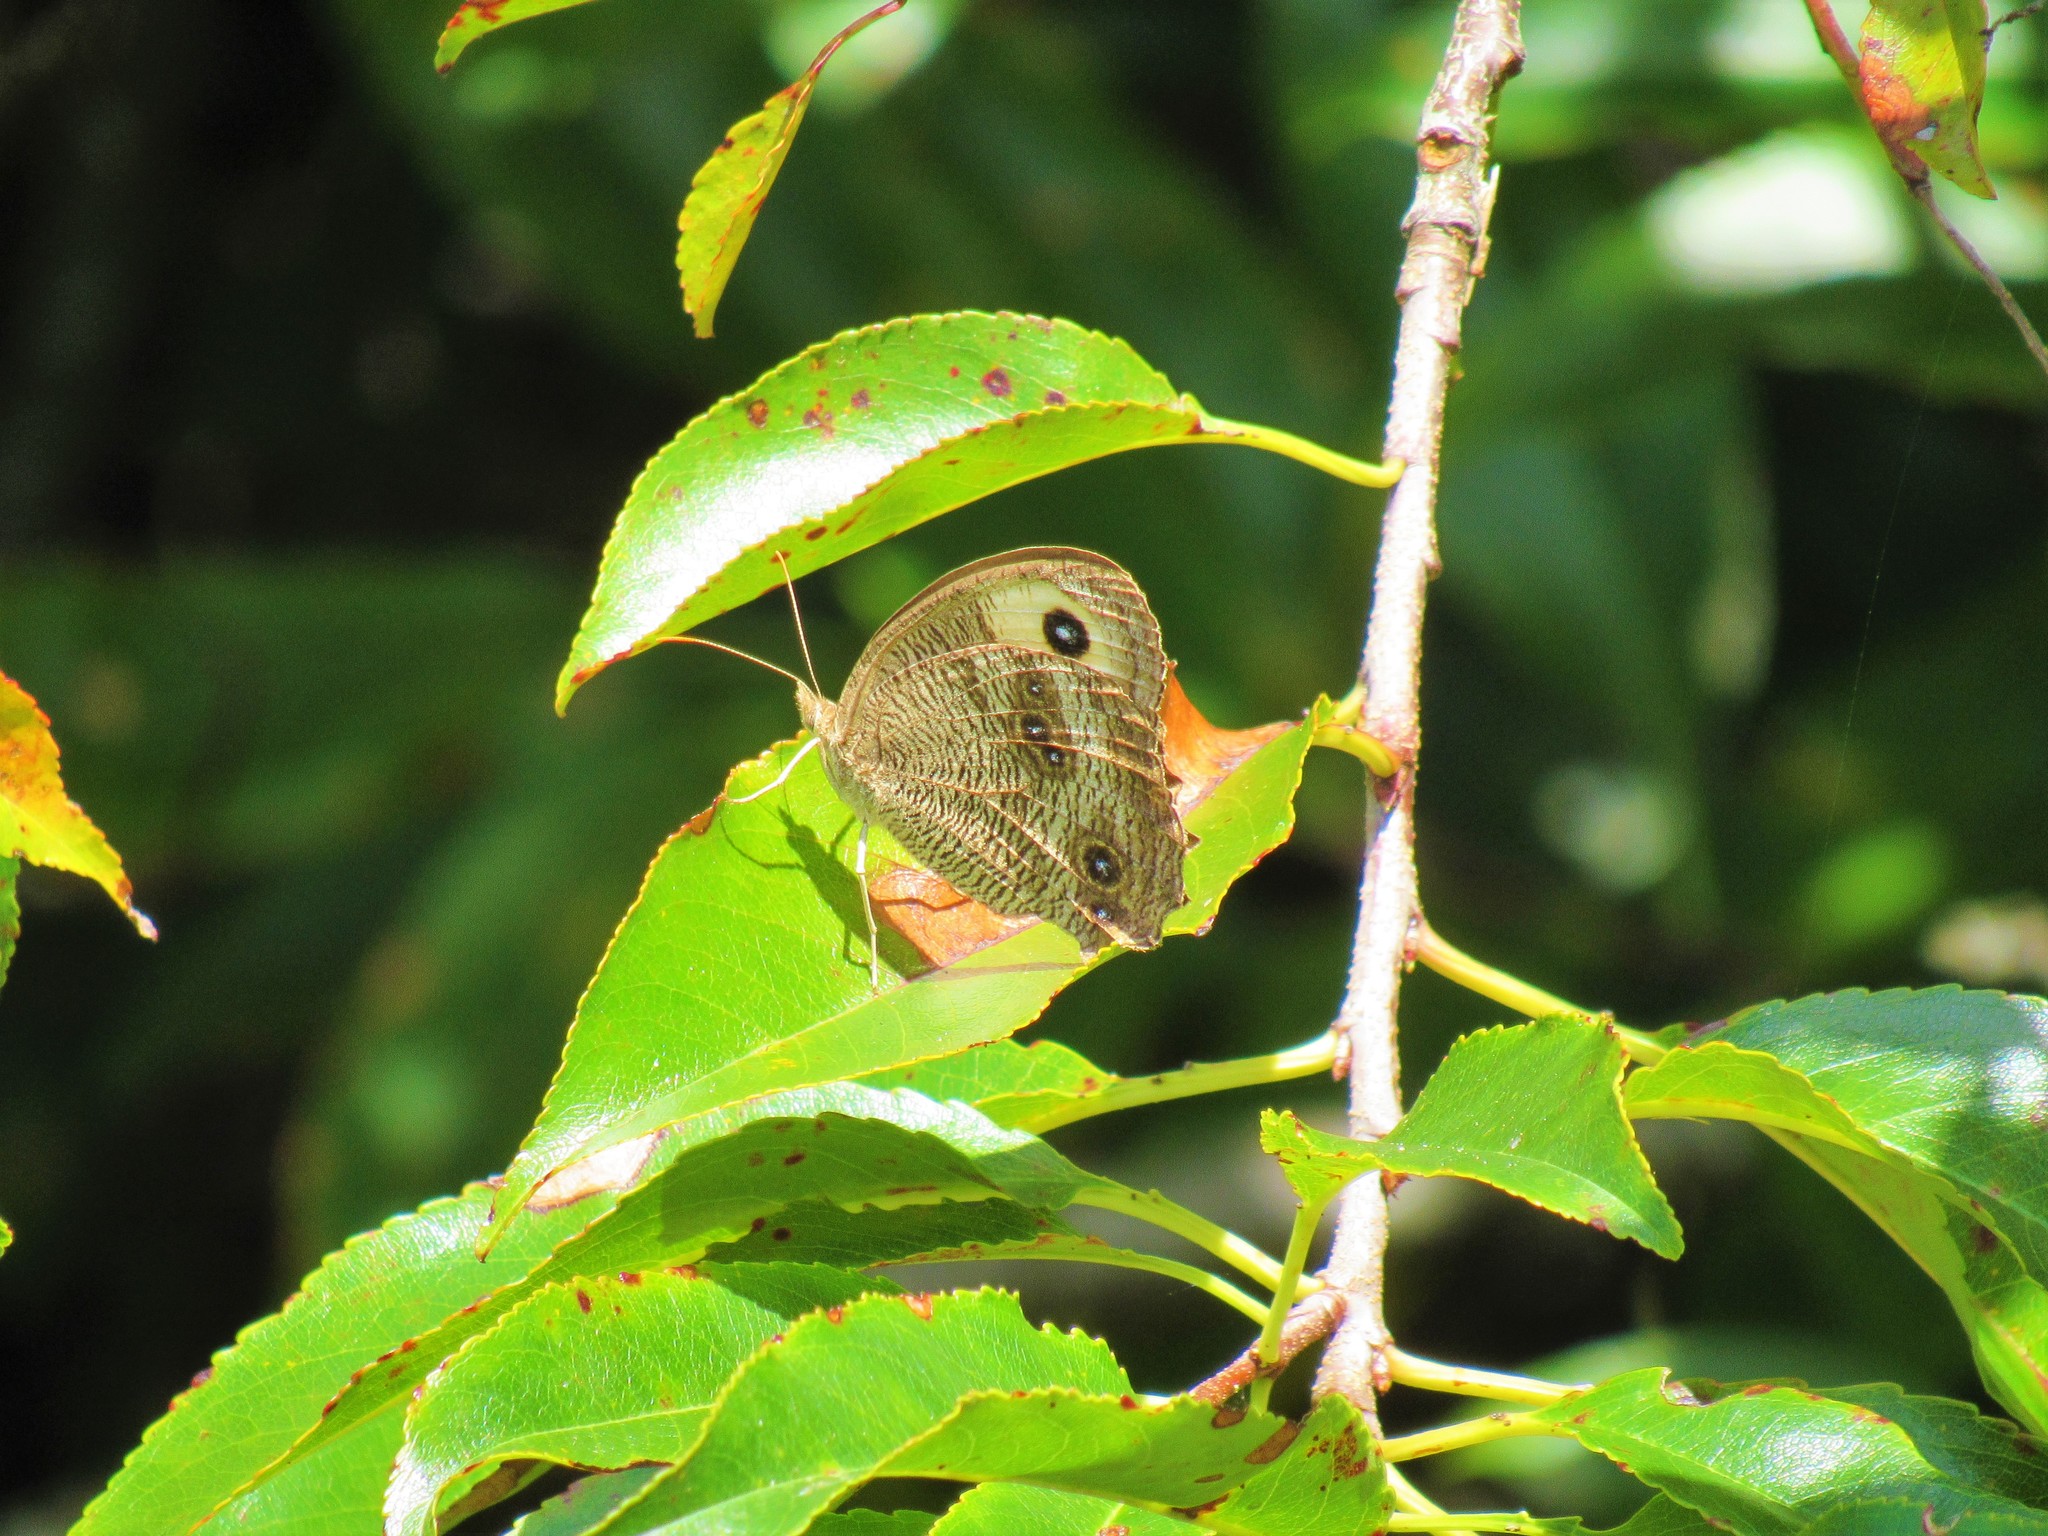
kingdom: Animalia
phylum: Arthropoda
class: Insecta
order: Lepidoptera
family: Nymphalidae
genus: Cercyonis
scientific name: Cercyonis pegala
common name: Common wood-nymph
